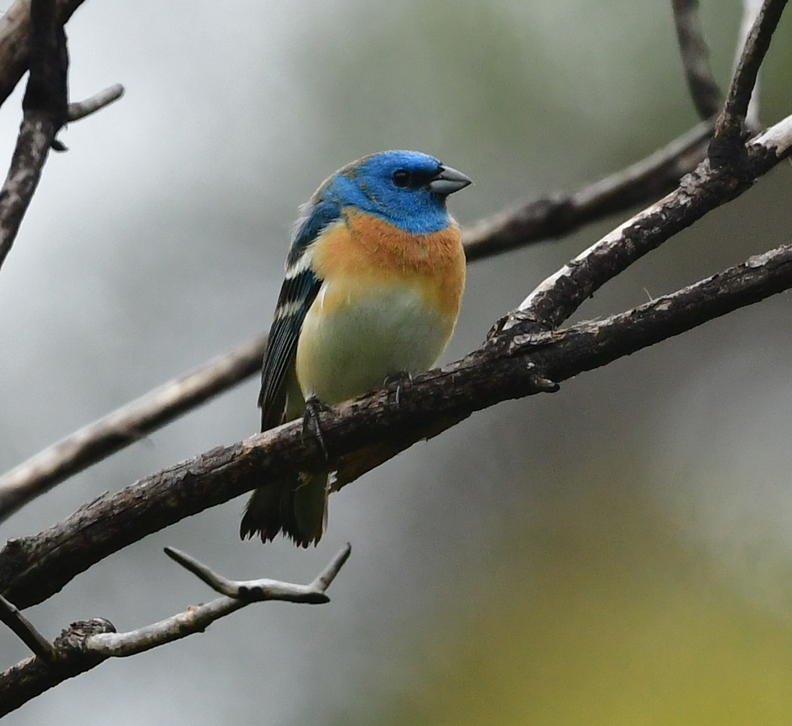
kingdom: Animalia
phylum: Chordata
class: Aves
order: Passeriformes
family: Cardinalidae
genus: Passerina
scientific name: Passerina amoena
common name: Lazuli bunting
